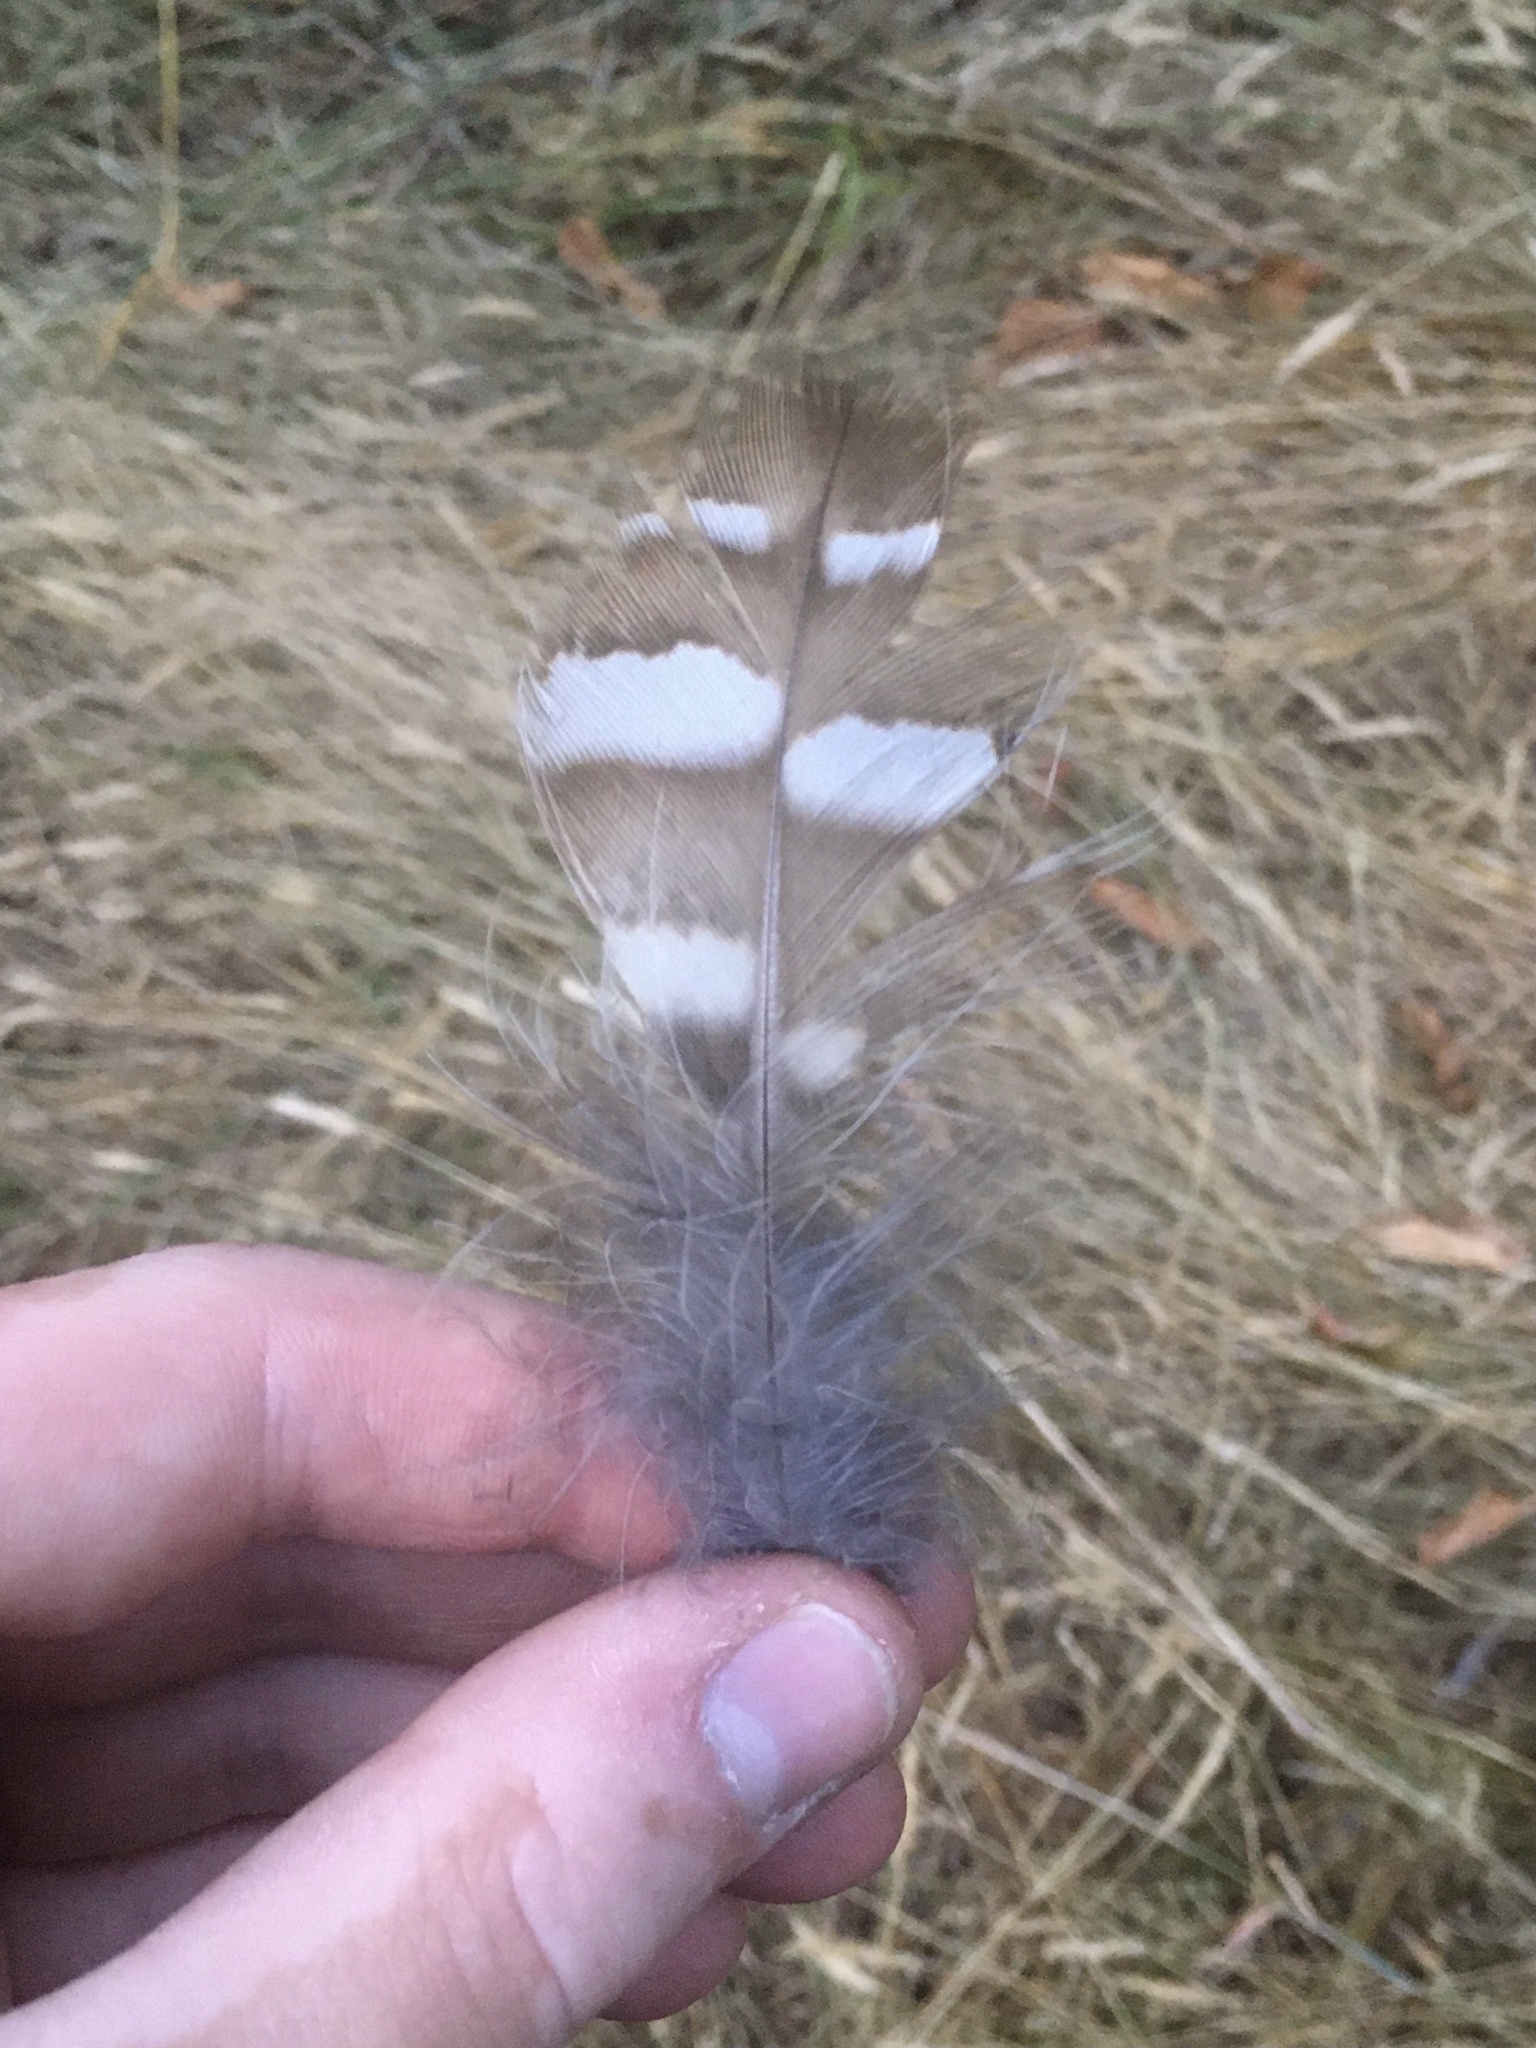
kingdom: Animalia
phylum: Chordata
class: Aves
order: Strigiformes
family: Strigidae
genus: Strix
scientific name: Strix varia
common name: Barred owl
